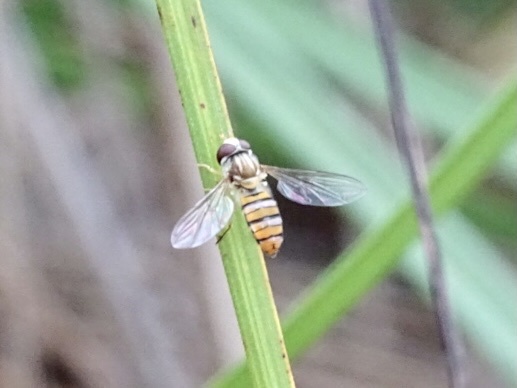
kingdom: Animalia
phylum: Arthropoda
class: Insecta
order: Diptera
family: Syrphidae
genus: Episyrphus
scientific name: Episyrphus balteatus
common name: Marmalade hoverfly
